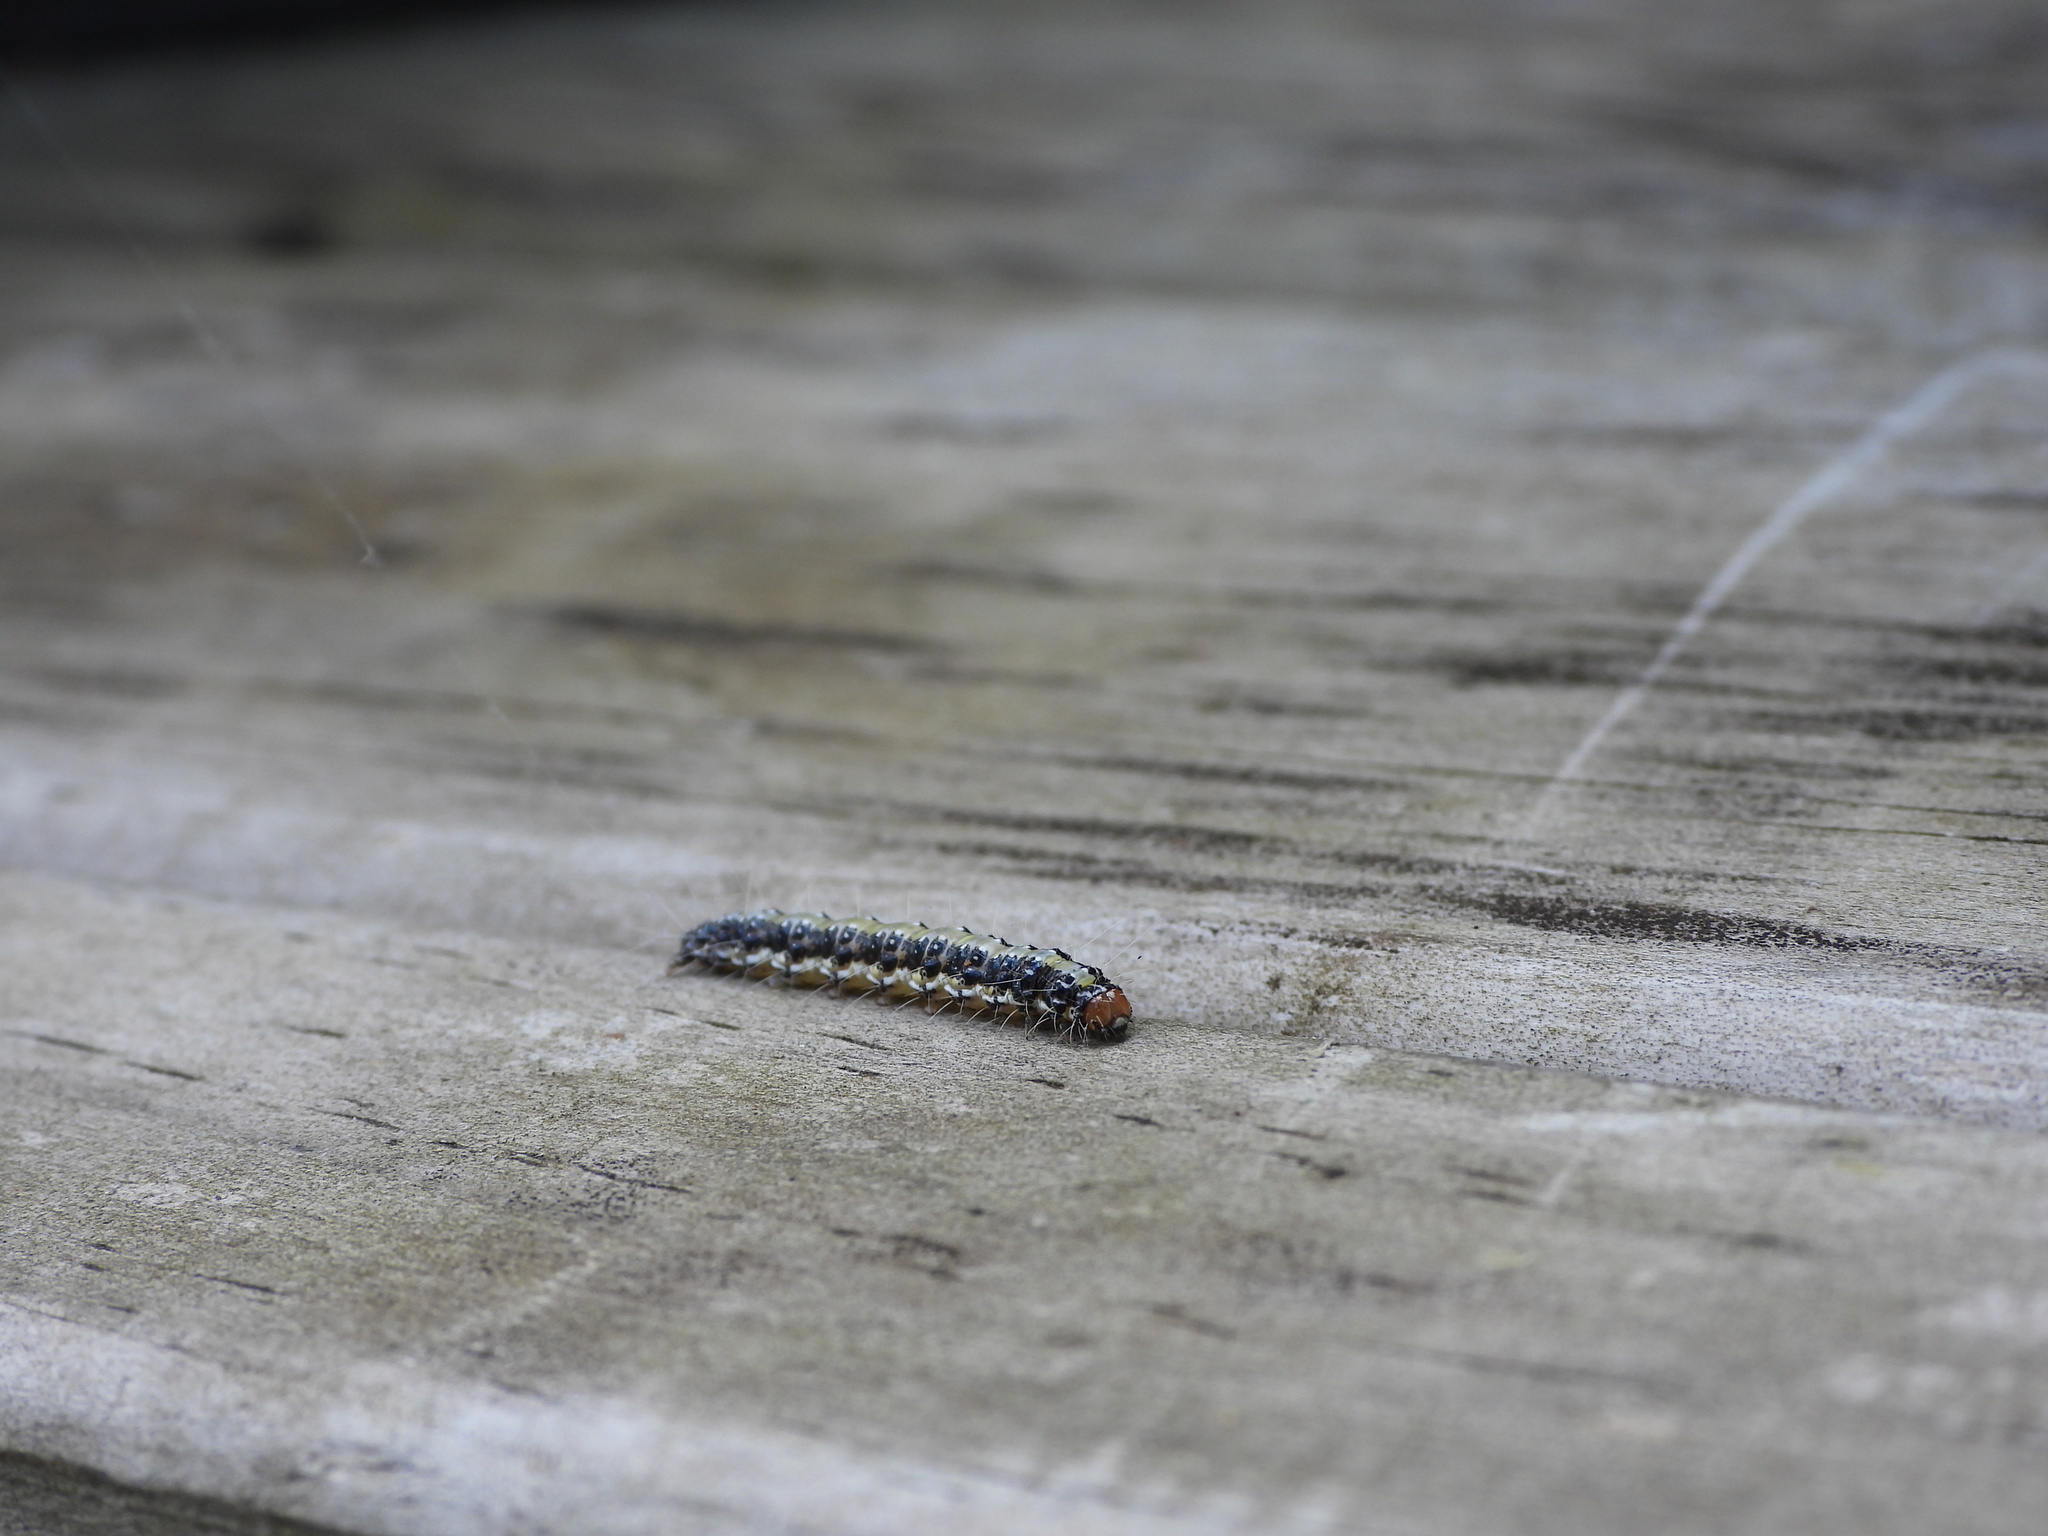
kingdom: Animalia
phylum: Arthropoda
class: Insecta
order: Lepidoptera
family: Crambidae
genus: Uresiphita
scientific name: Uresiphita
